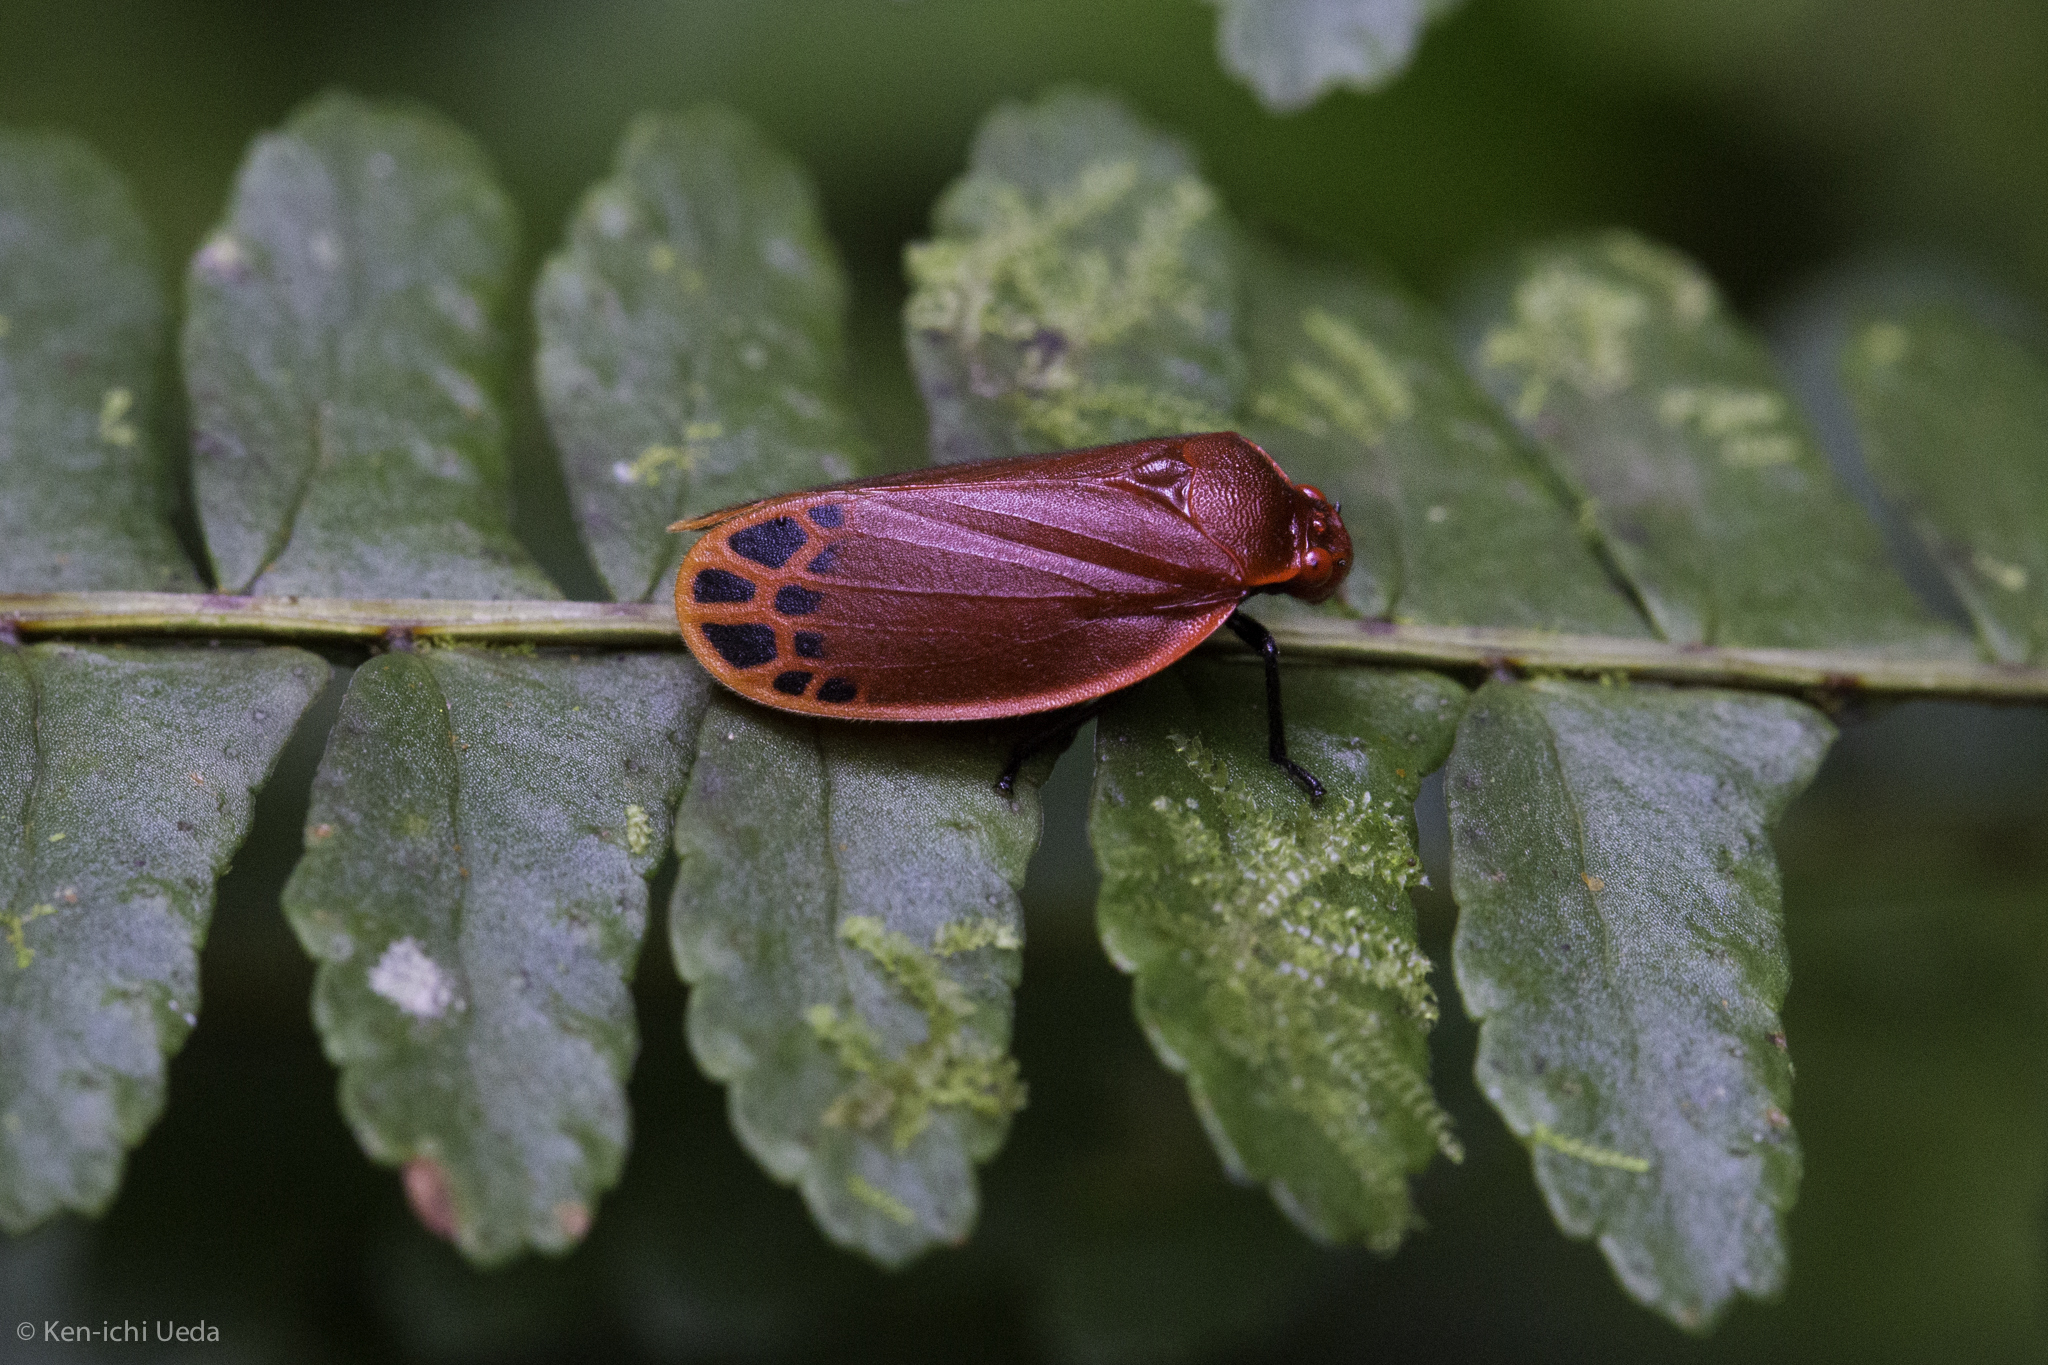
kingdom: Animalia
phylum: Arthropoda
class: Insecta
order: Hemiptera
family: Cercopidae
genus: Tomaspis
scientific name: Tomaspis biolleyi
